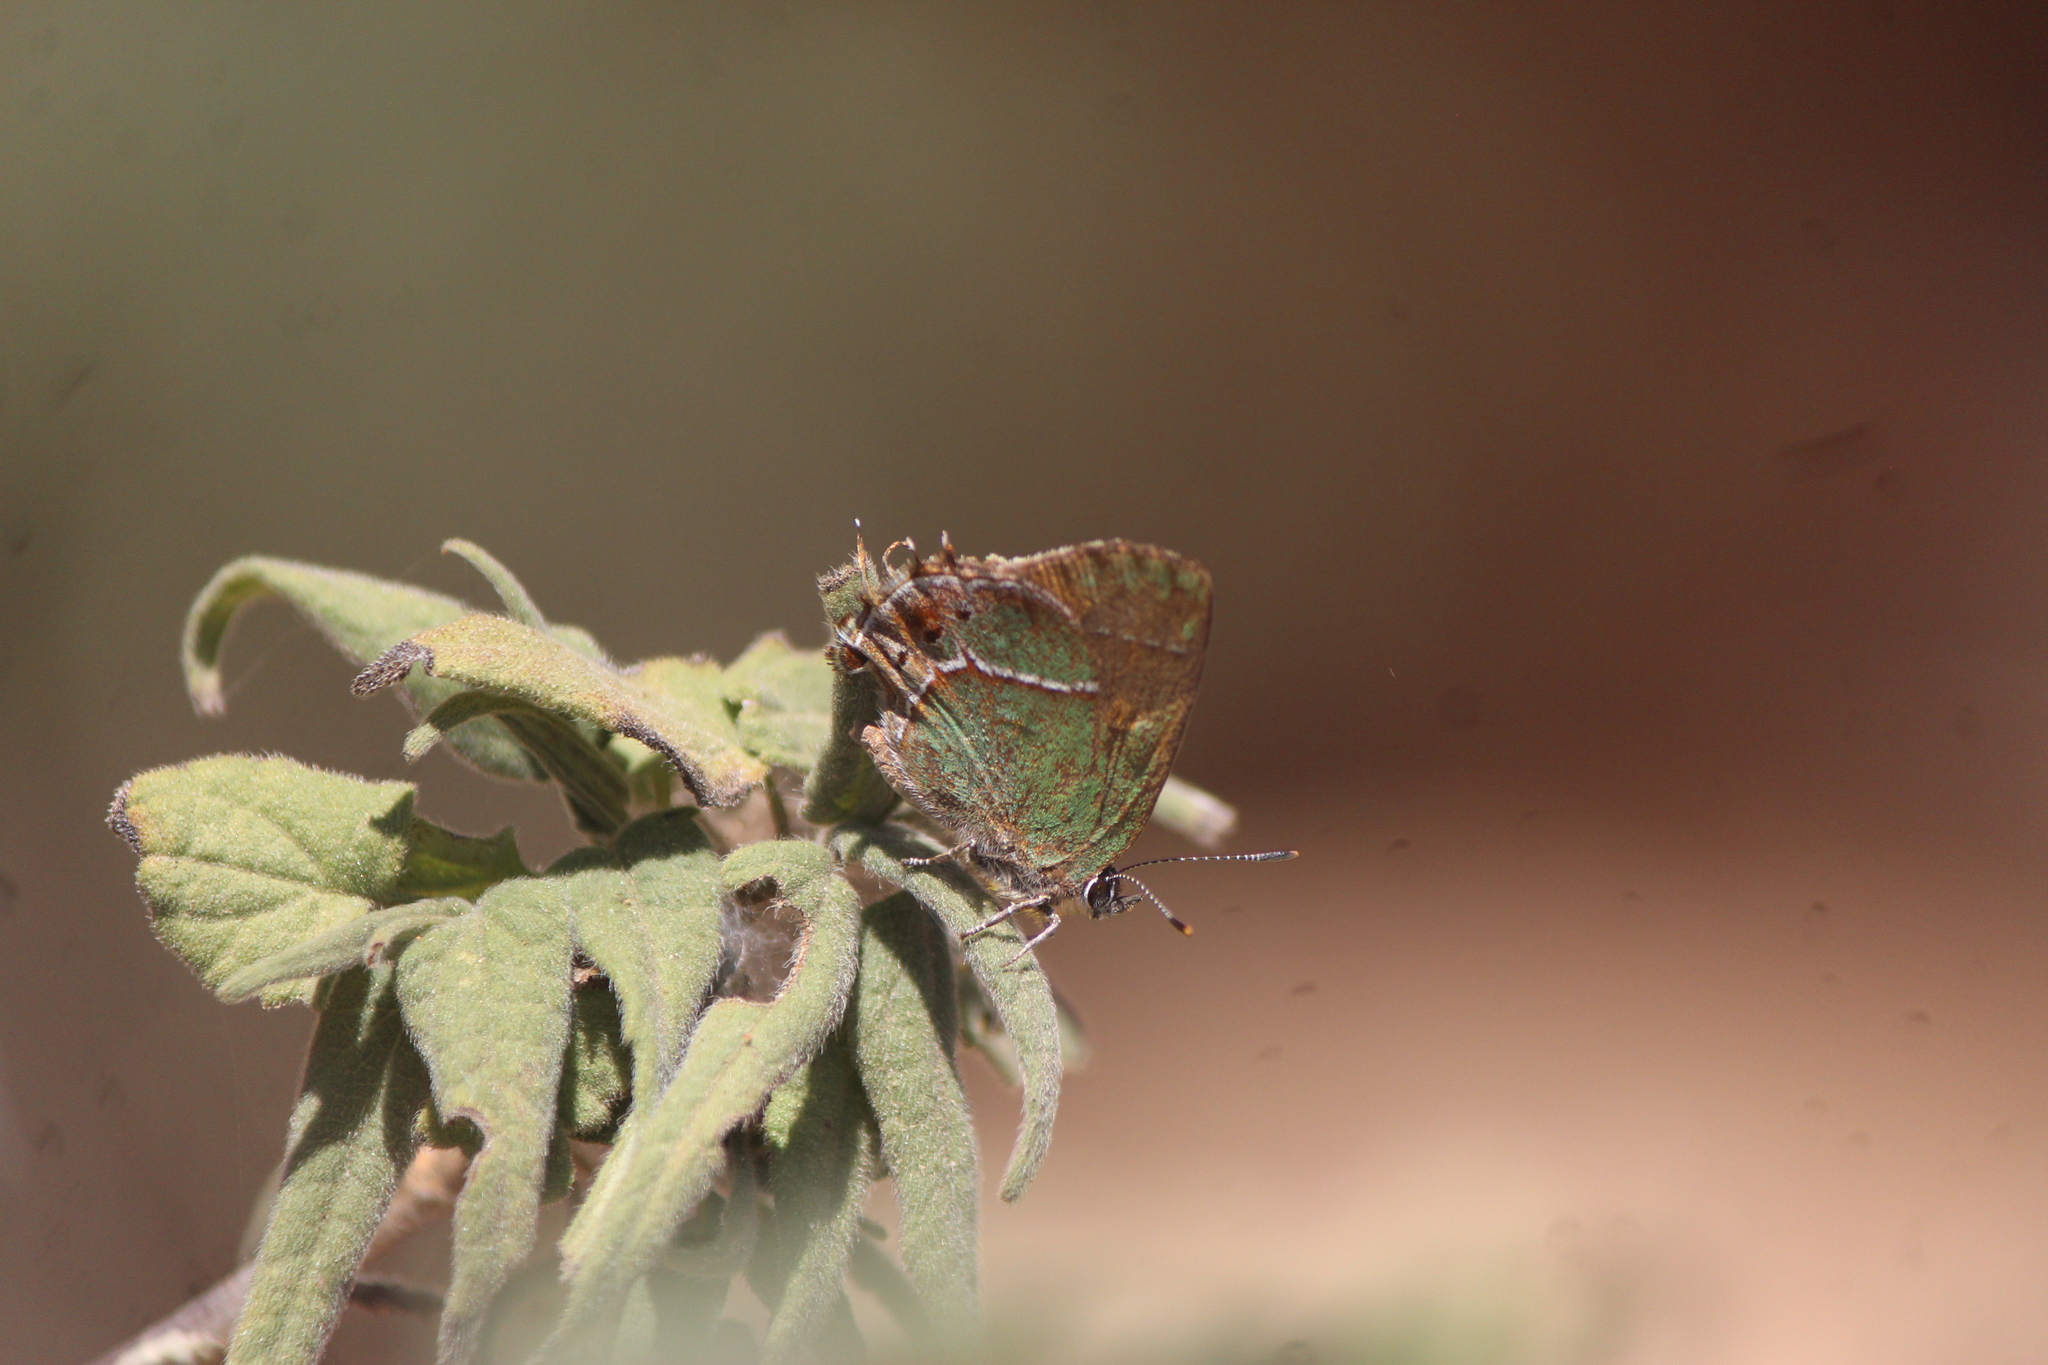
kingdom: Animalia
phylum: Arthropoda
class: Insecta
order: Lepidoptera
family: Lycaenidae
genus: Xamia
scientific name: Xamia xami
